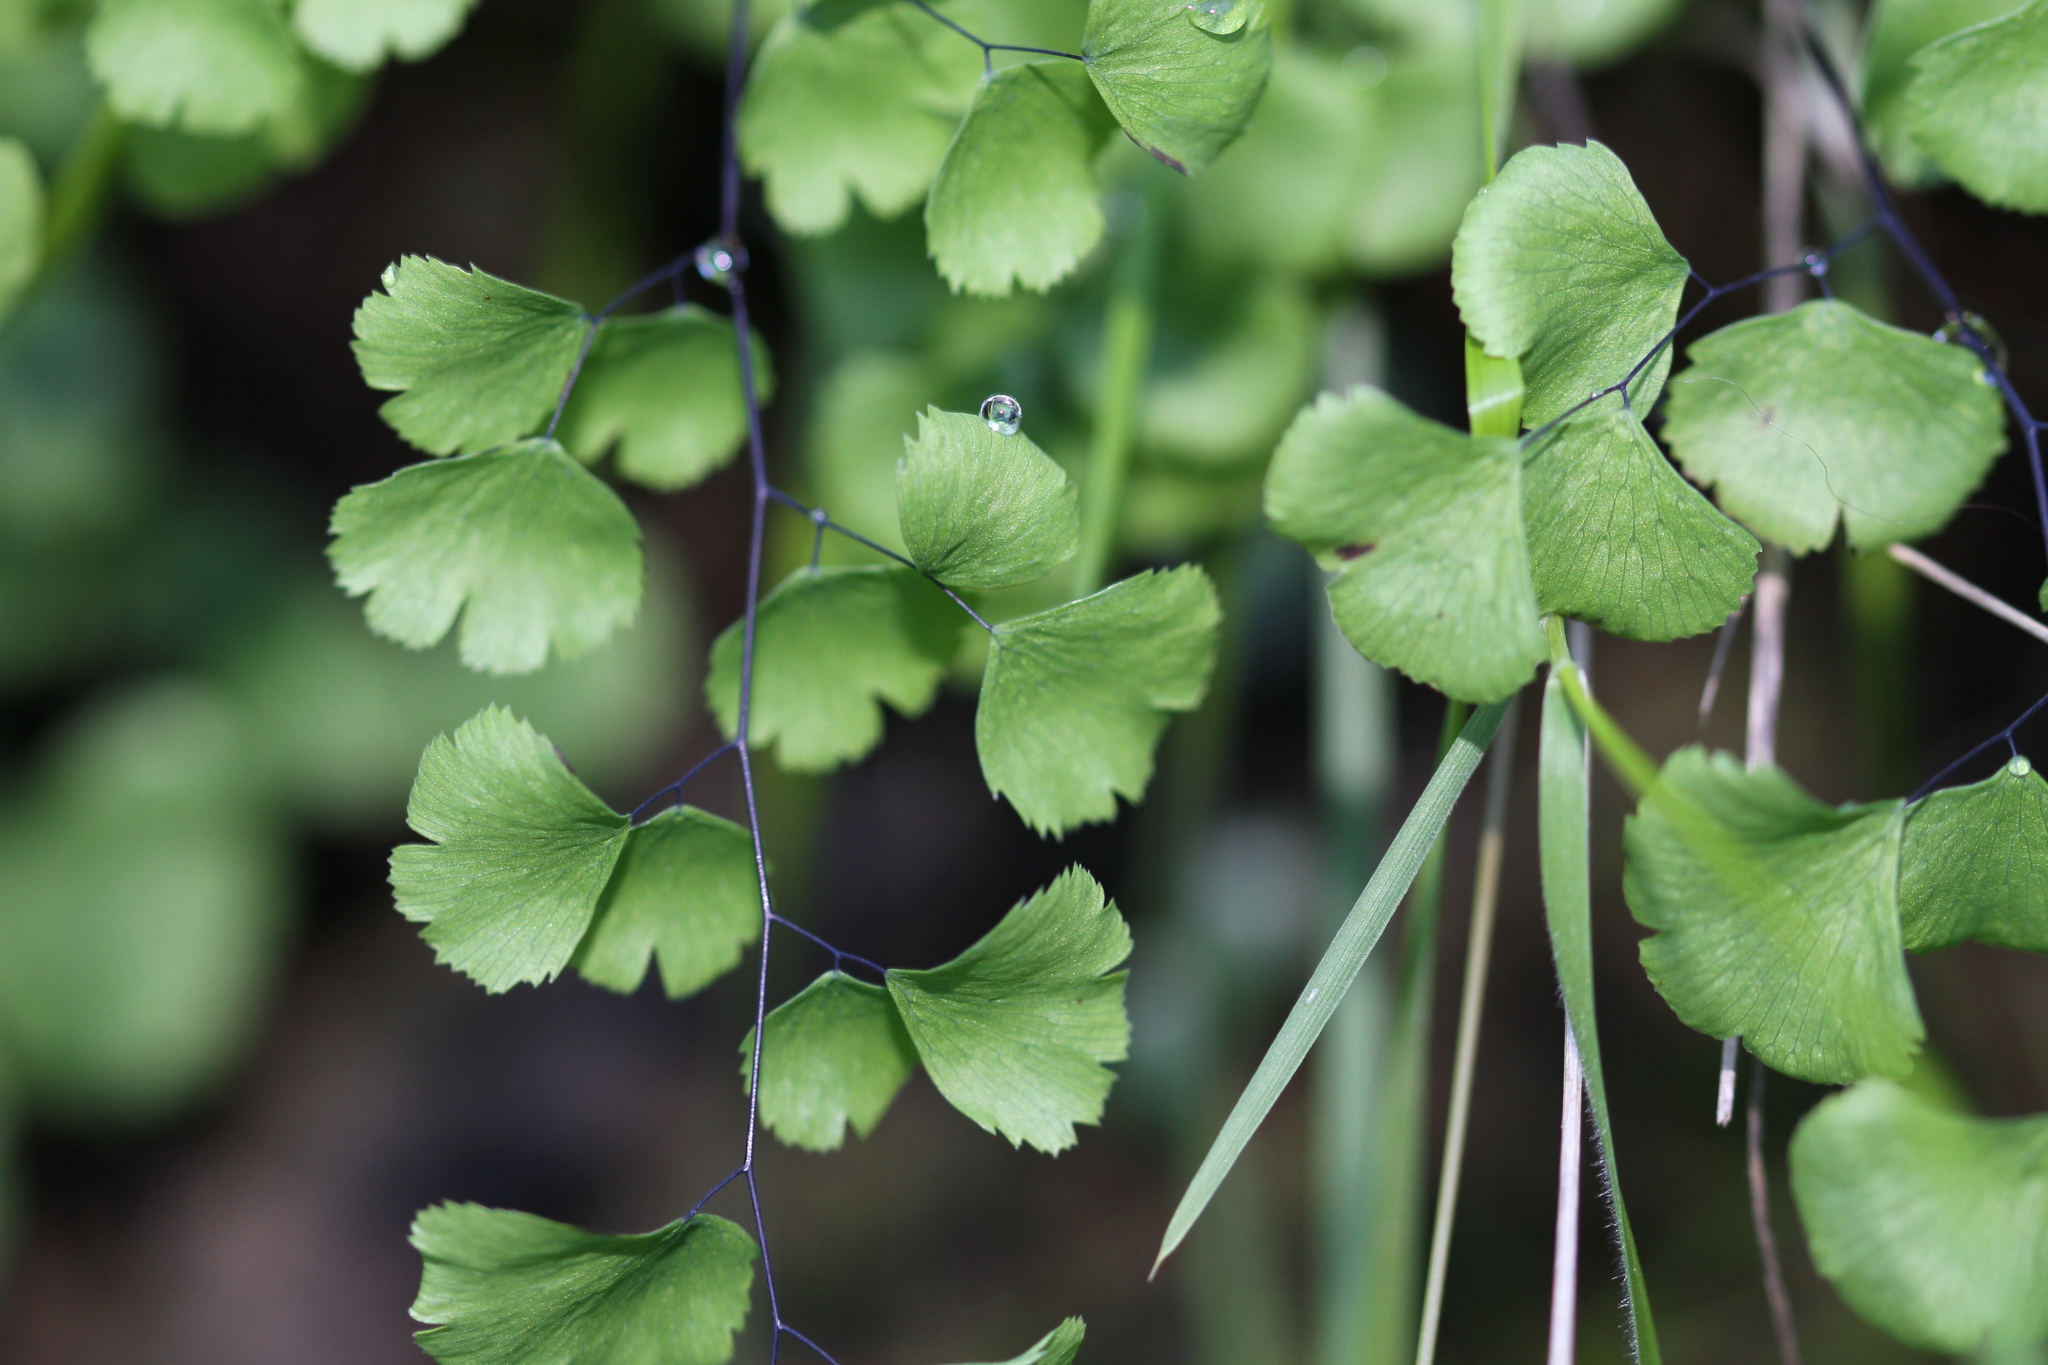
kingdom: Plantae
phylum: Tracheophyta
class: Polypodiopsida
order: Polypodiales
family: Pteridaceae
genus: Adiantum
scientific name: Adiantum jordanii
